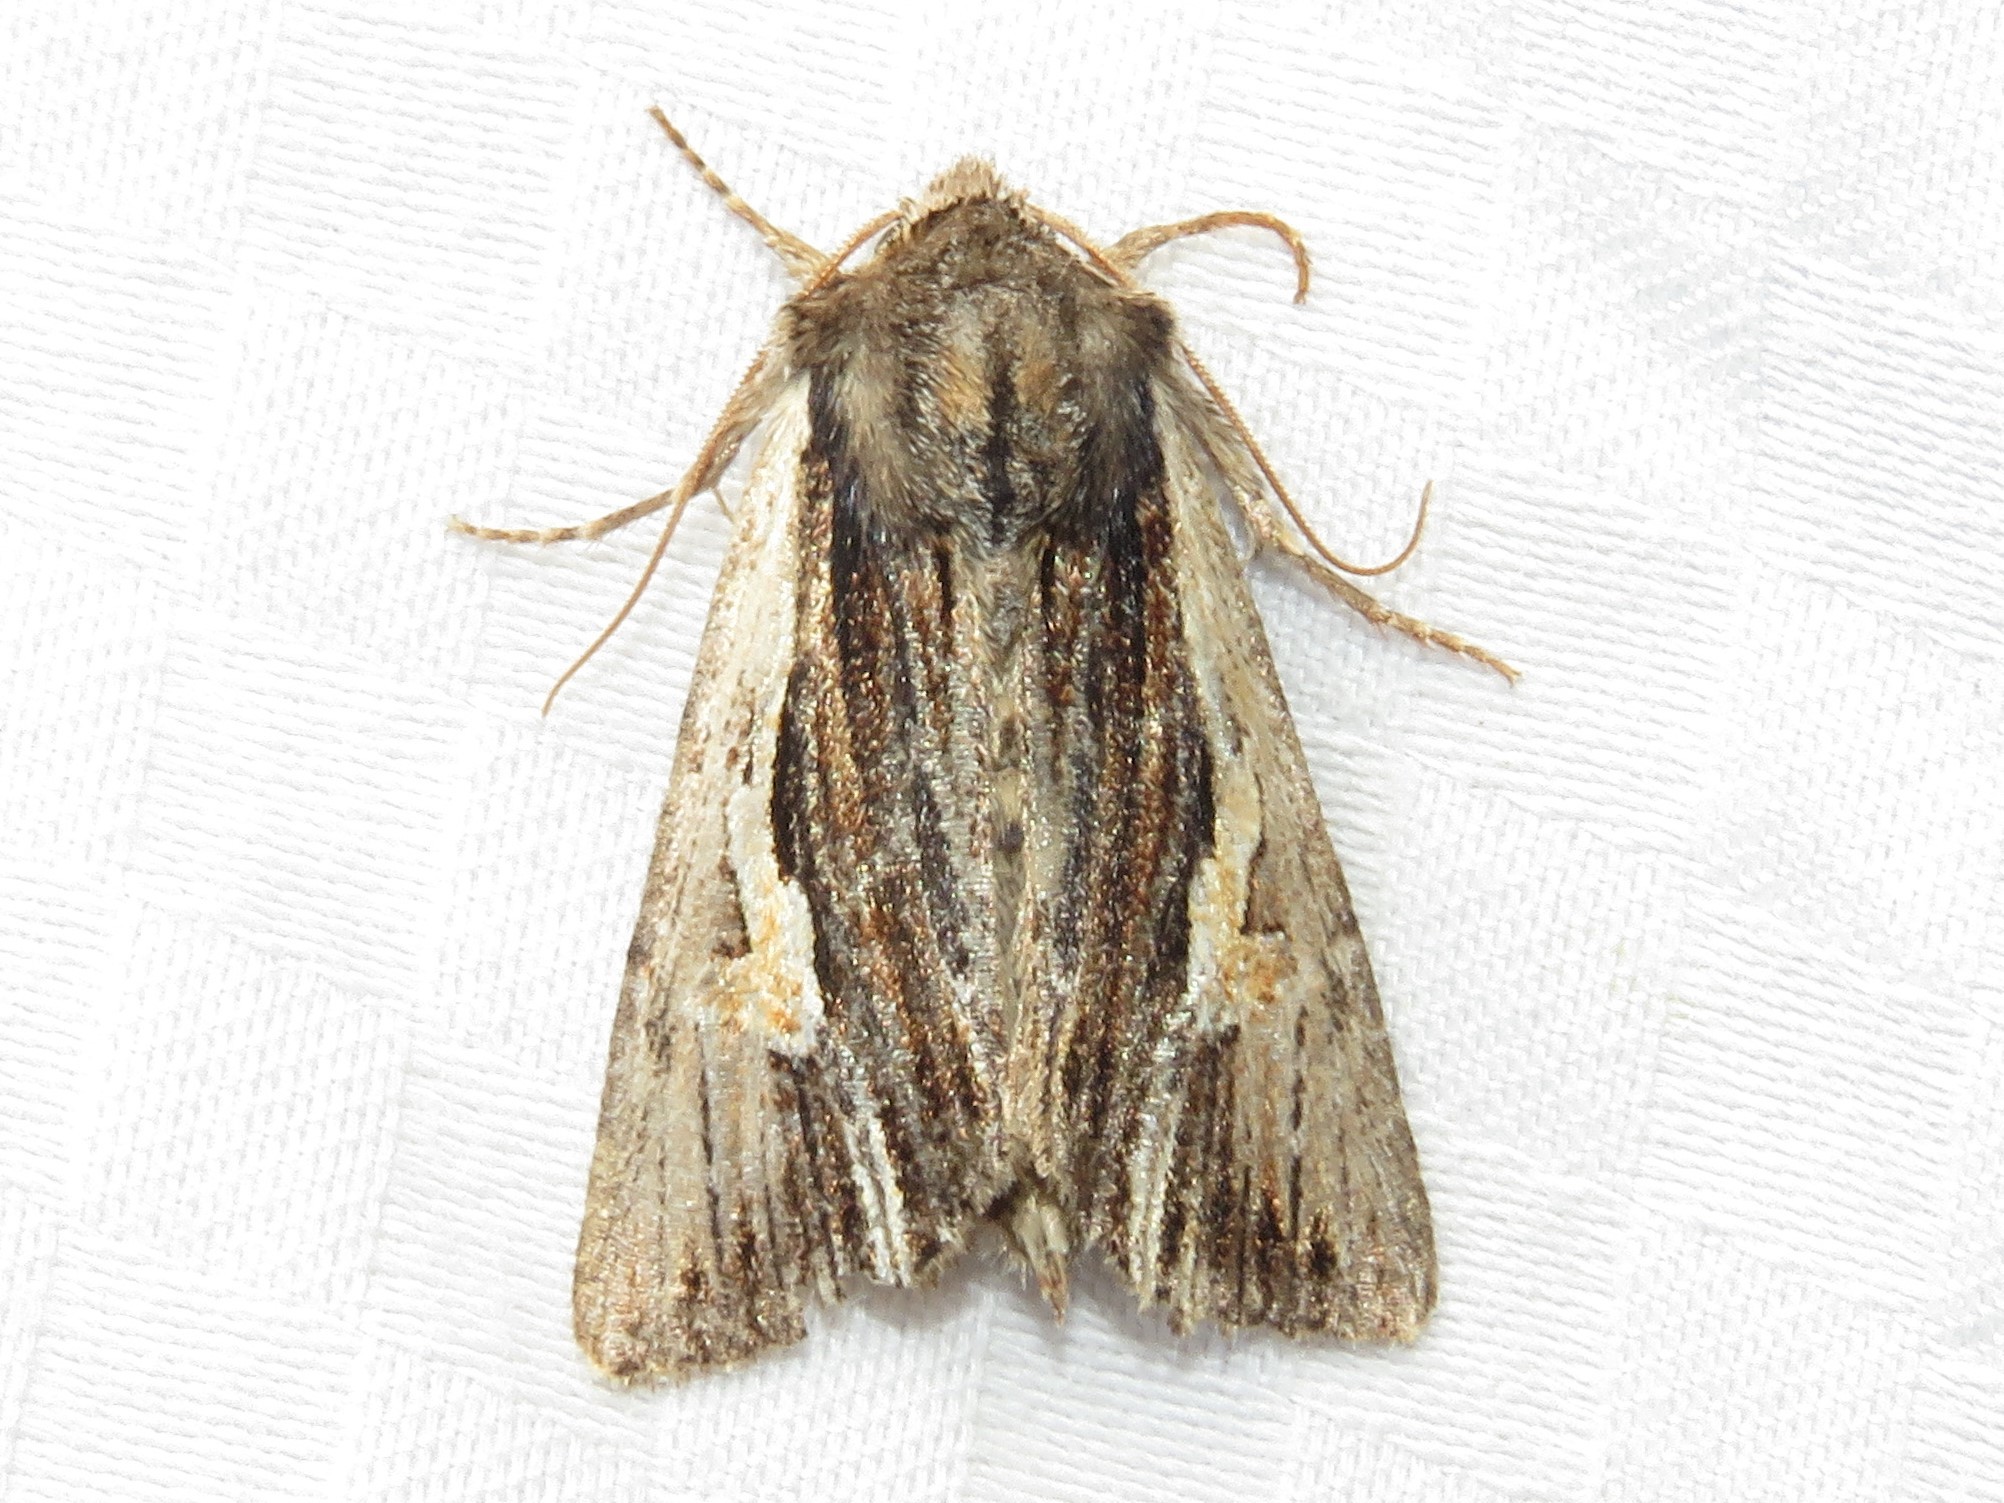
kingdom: Animalia
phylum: Arthropoda
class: Insecta
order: Lepidoptera
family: Noctuidae
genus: Achatia
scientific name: Achatia evicta
